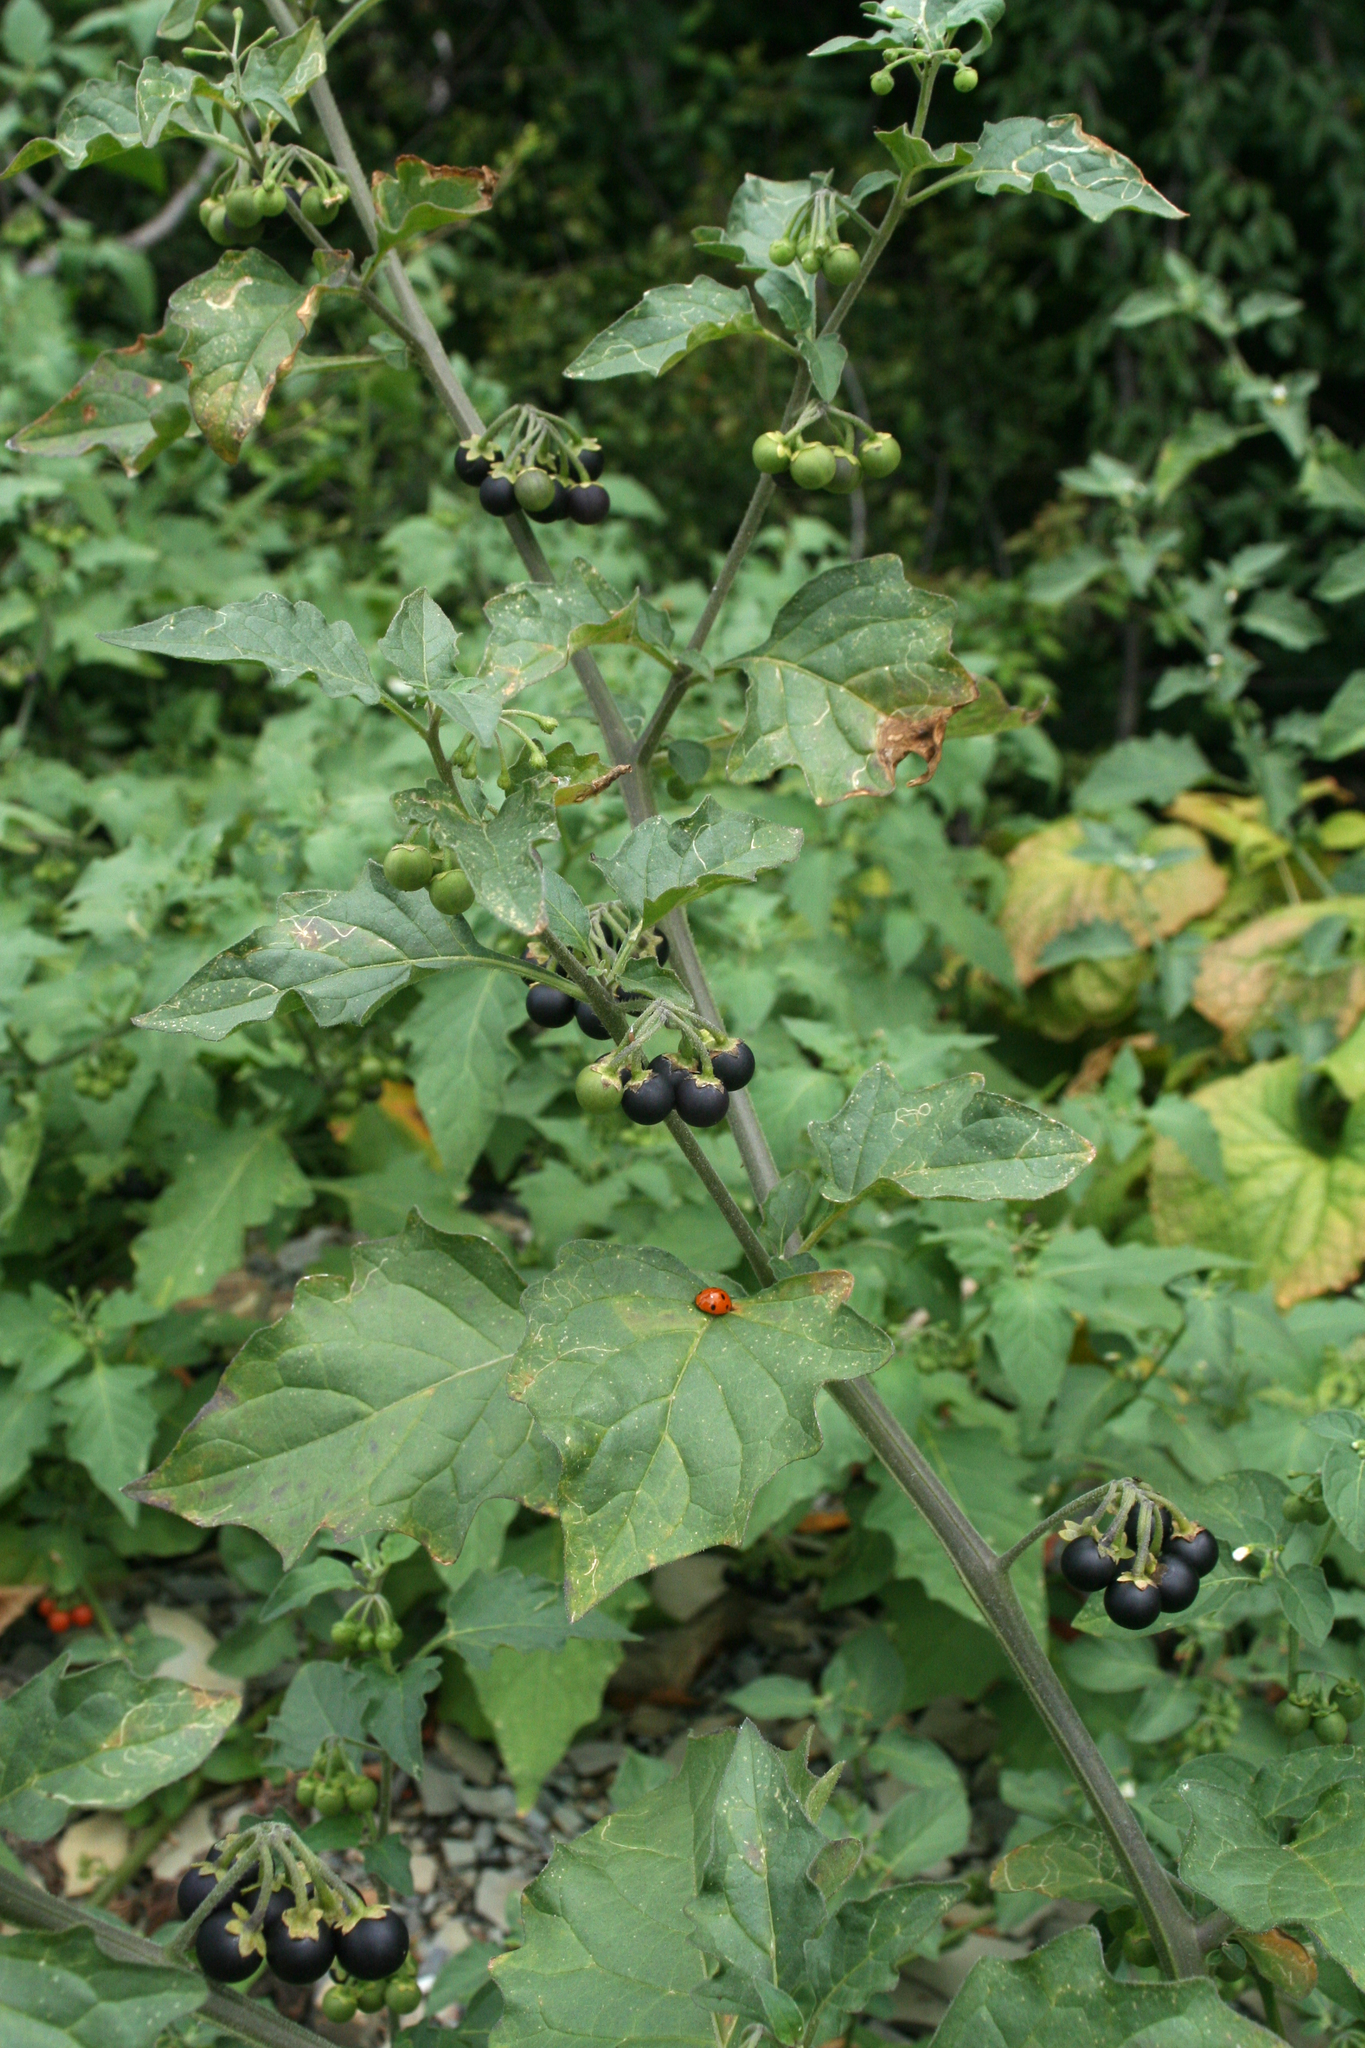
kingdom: Plantae
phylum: Tracheophyta
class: Magnoliopsida
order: Solanales
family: Solanaceae
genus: Solanum
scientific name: Solanum nigrum
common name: Black nightshade
